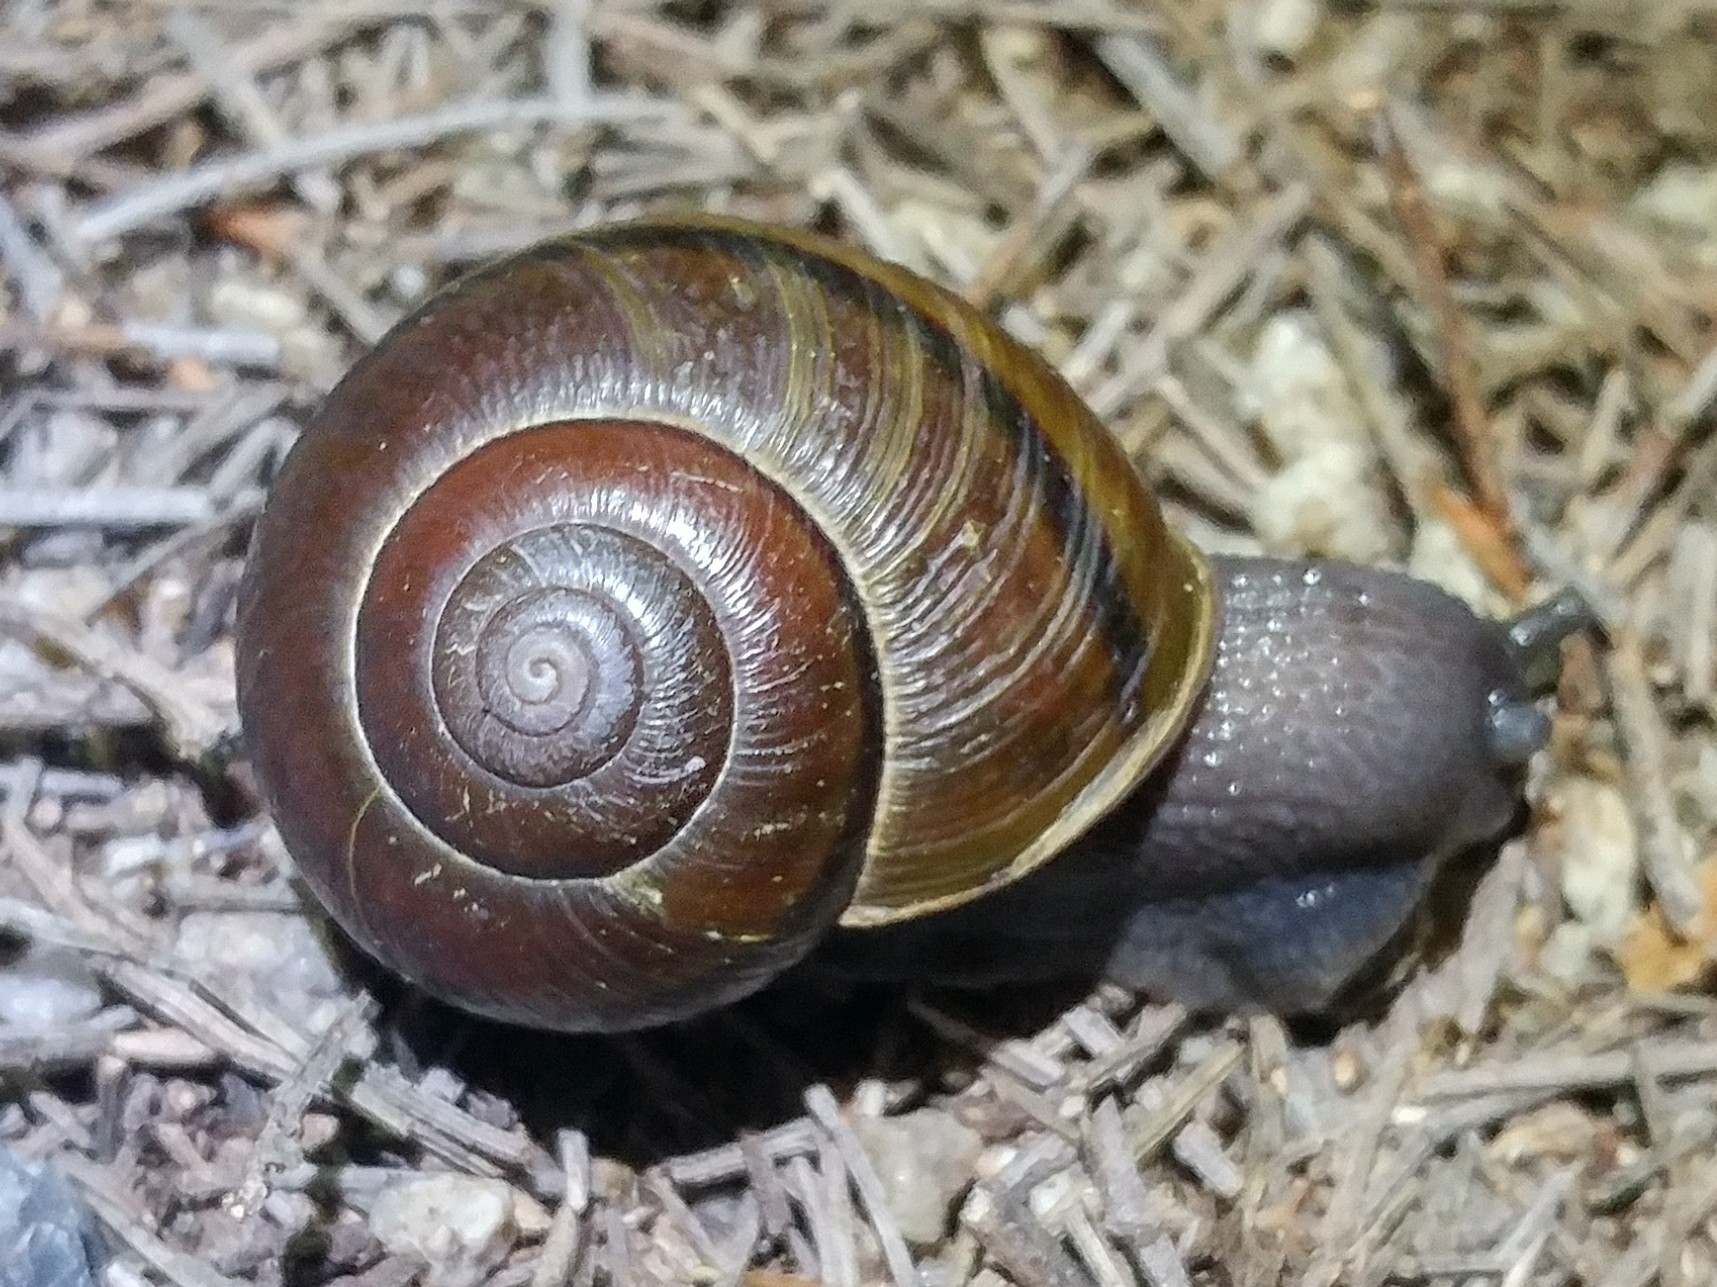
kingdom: Animalia
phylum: Mollusca
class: Gastropoda
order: Stylommatophora
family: Xanthonychidae
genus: Helminthoglypta
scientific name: Helminthoglypta tudiculata
